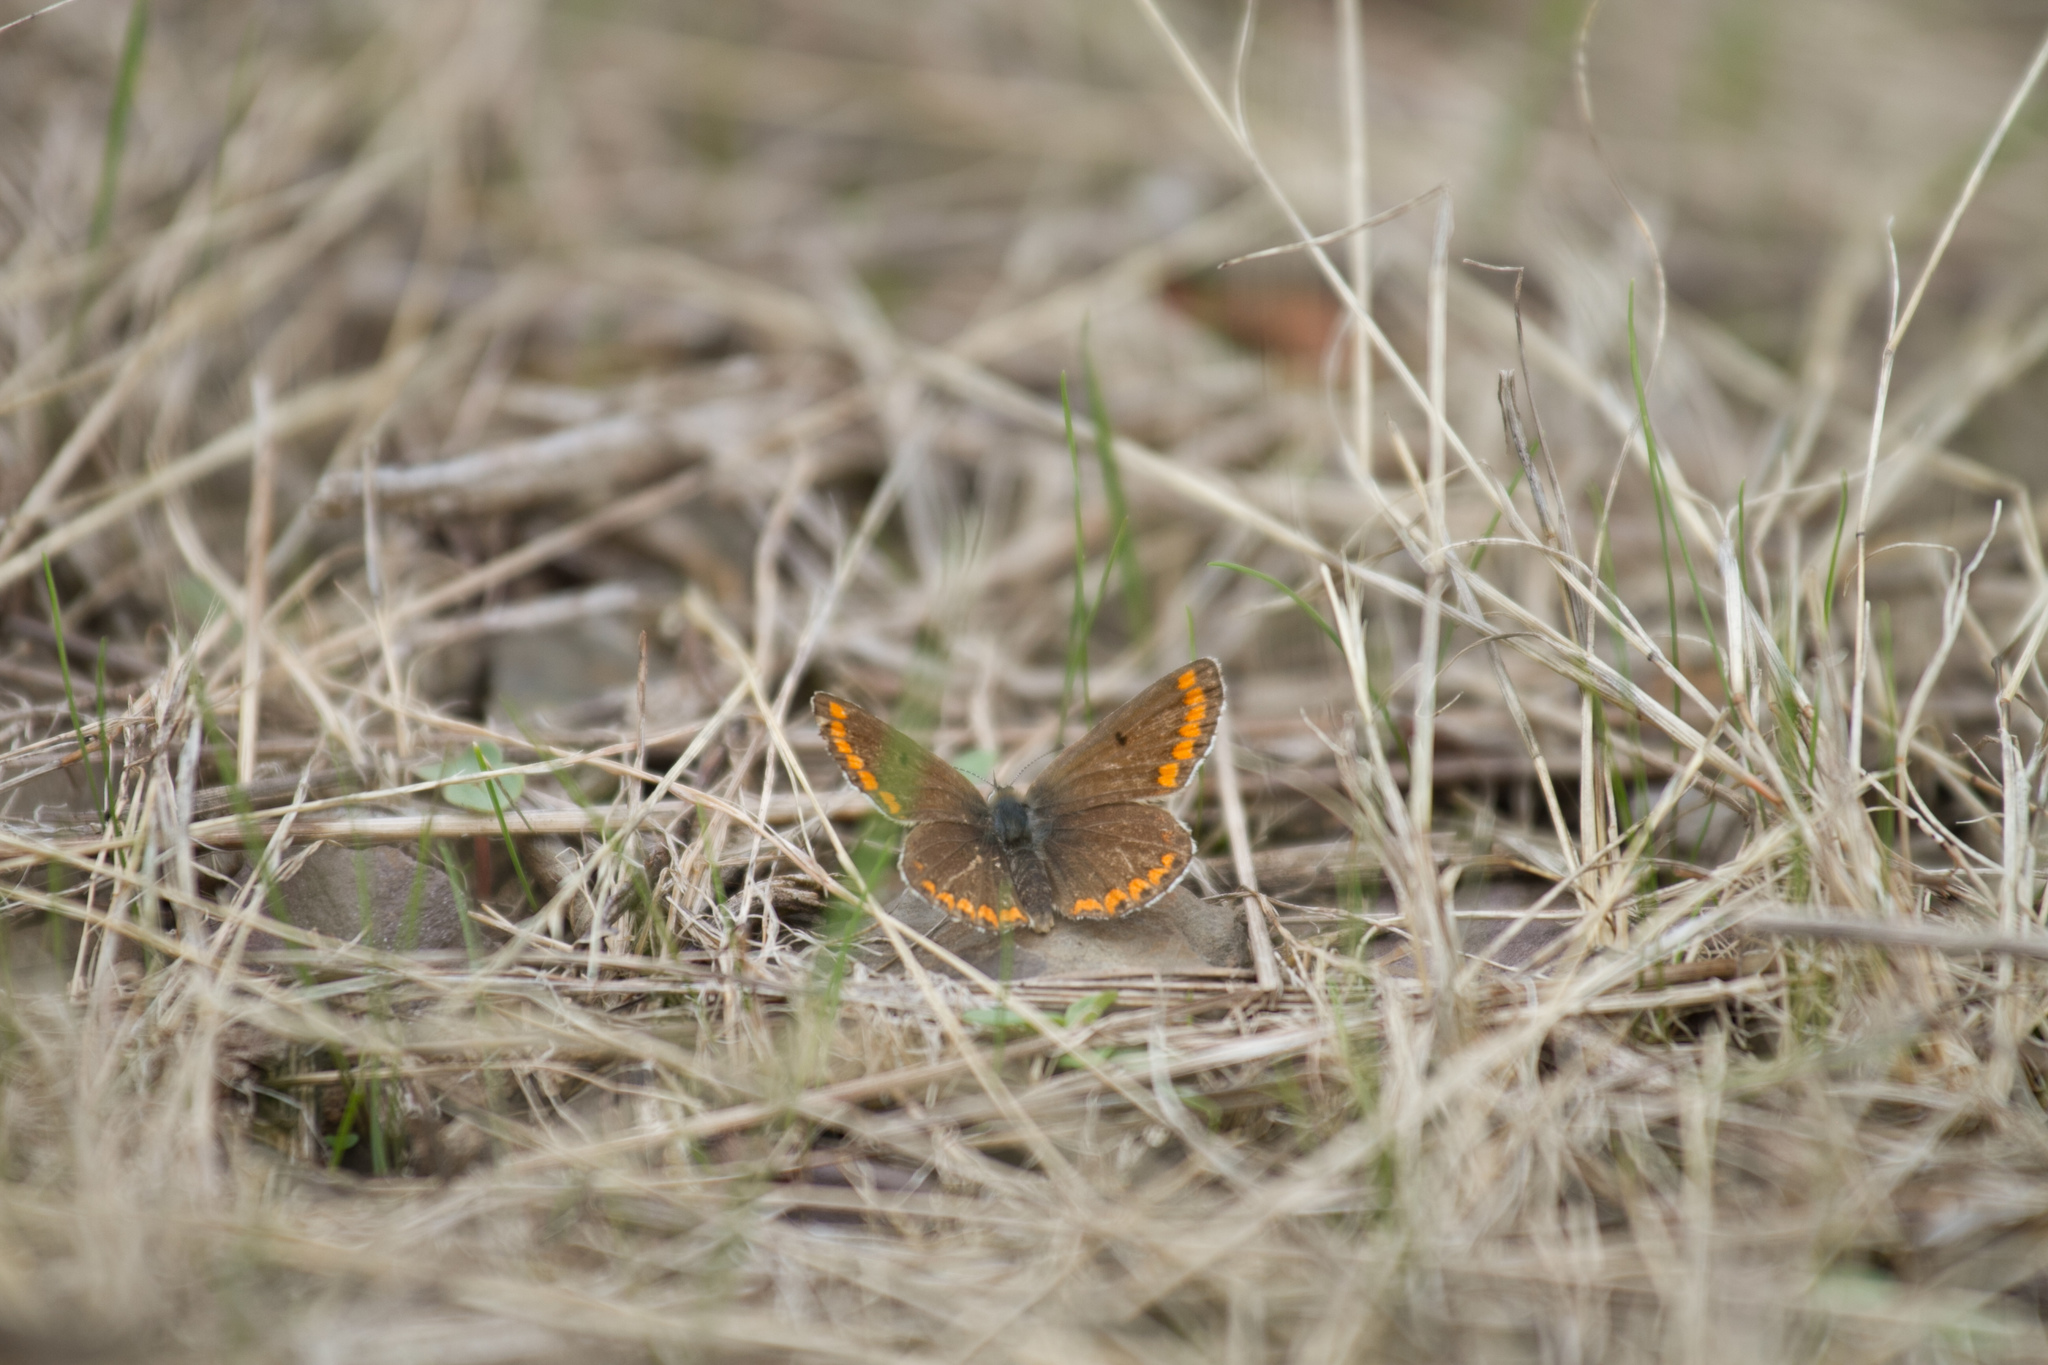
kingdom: Animalia
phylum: Arthropoda
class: Insecta
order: Lepidoptera
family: Lycaenidae
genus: Aricia
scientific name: Aricia agestis
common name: Brown argus
